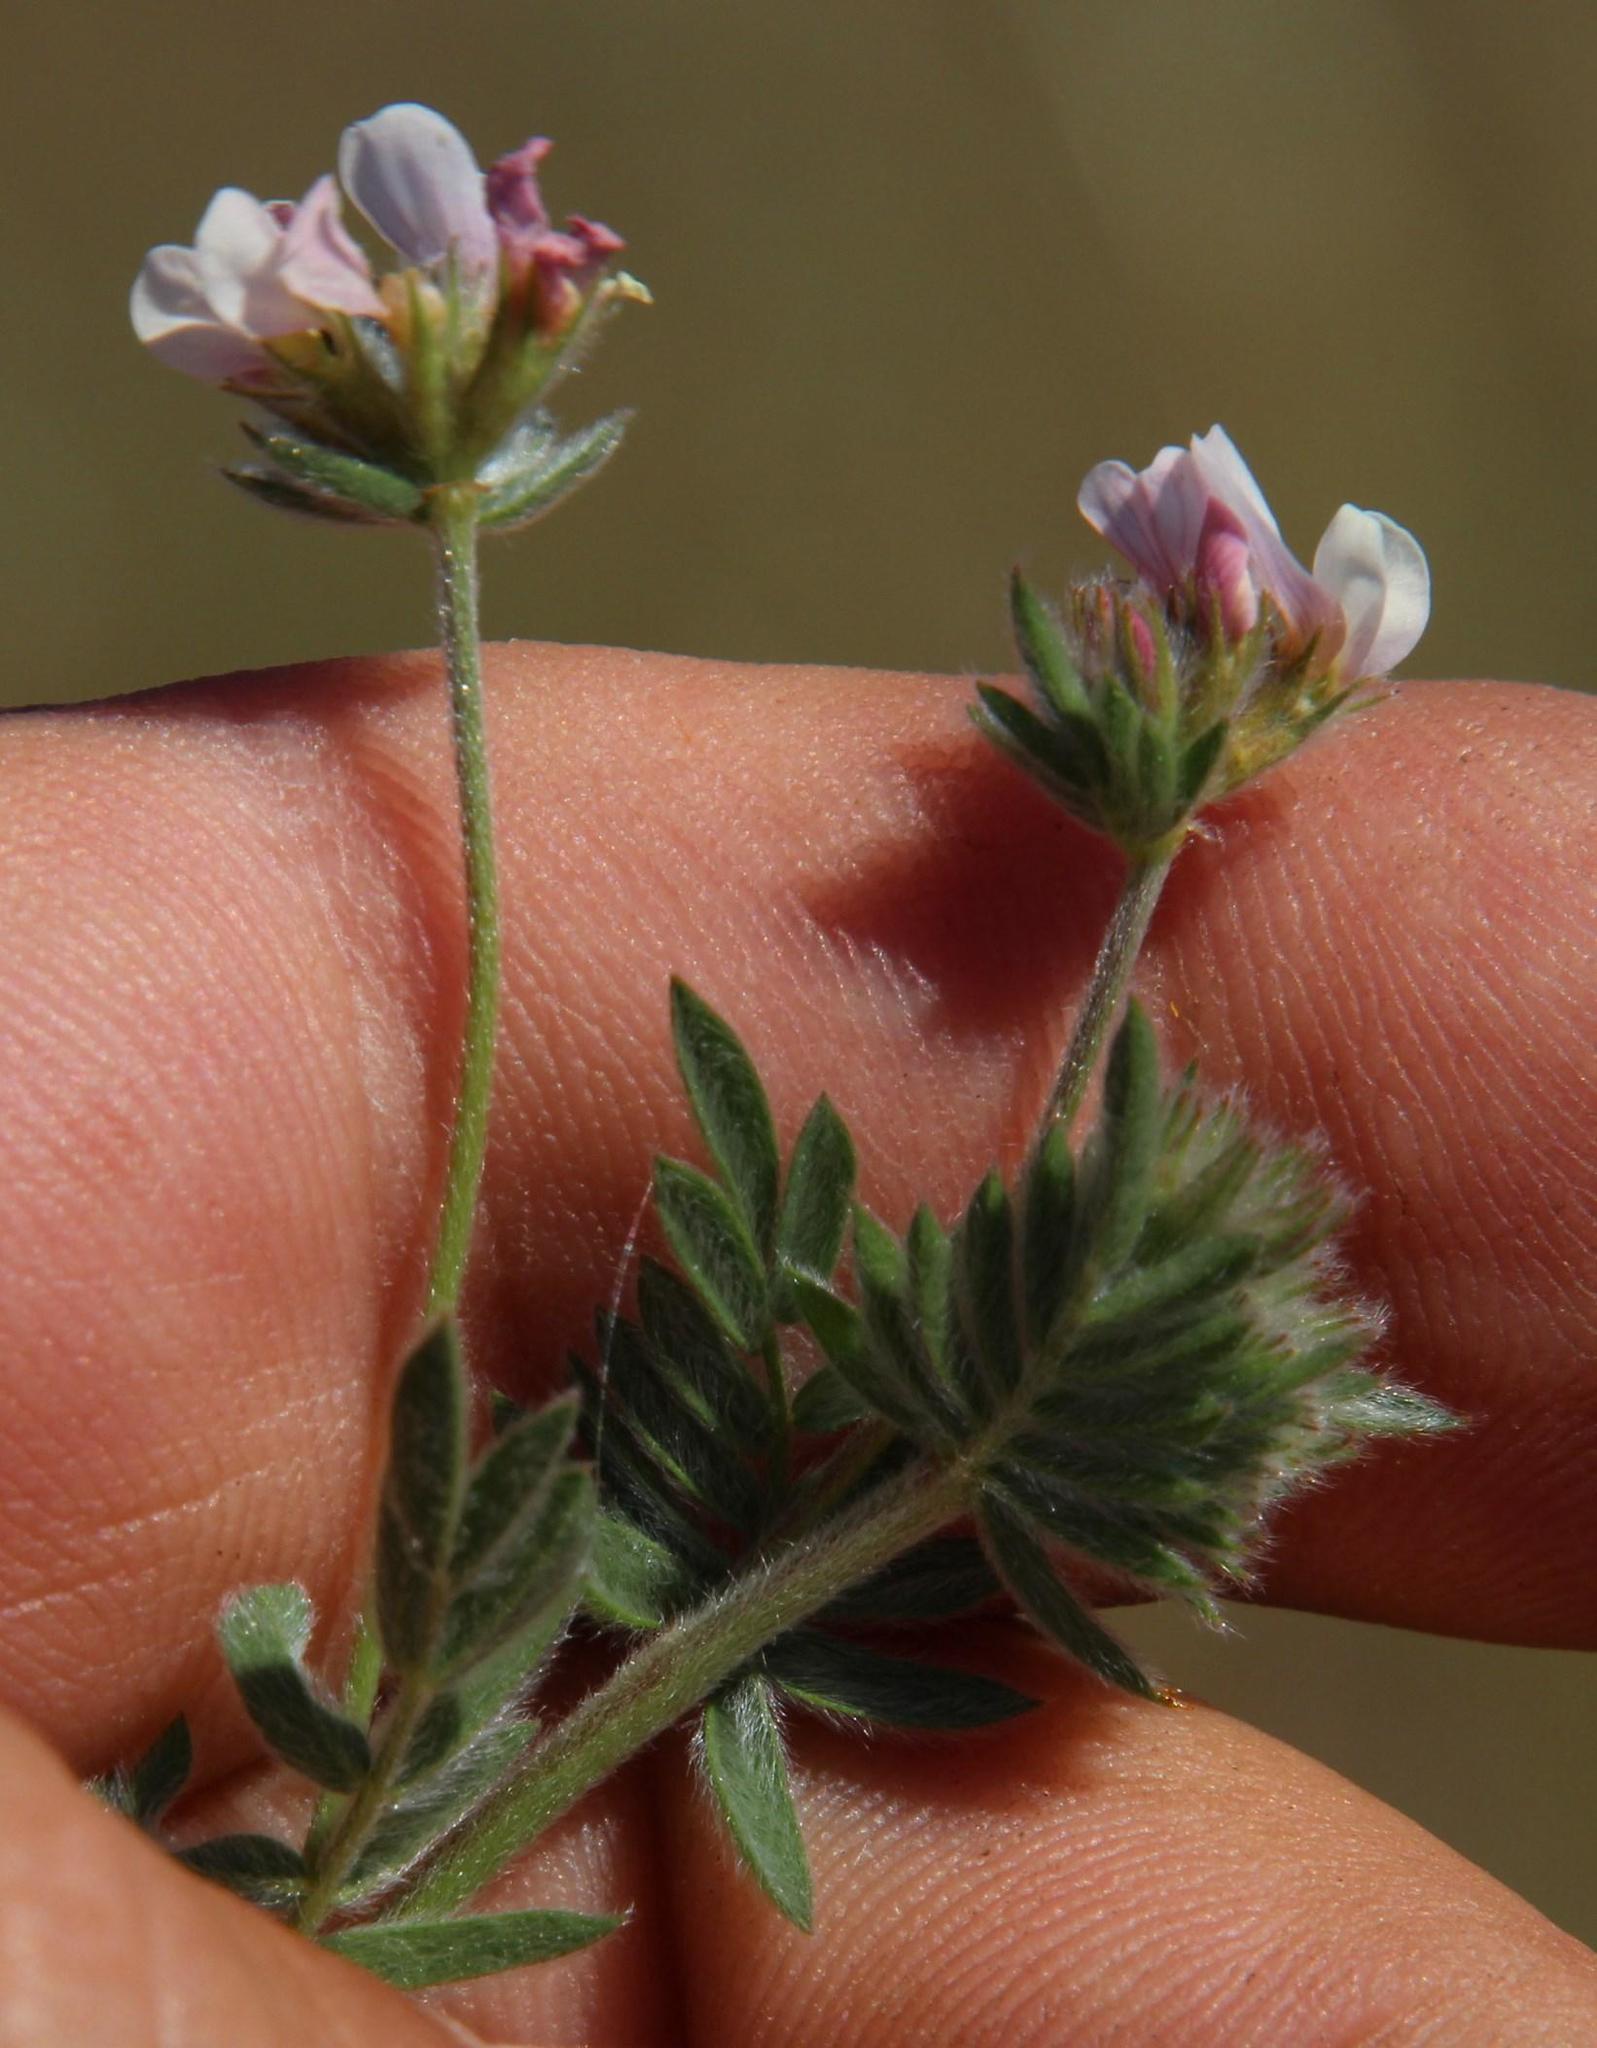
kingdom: Plantae
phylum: Tracheophyta
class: Magnoliopsida
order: Fabales
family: Fabaceae
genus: Ornithopus
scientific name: Ornithopus sativus
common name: Serradella
